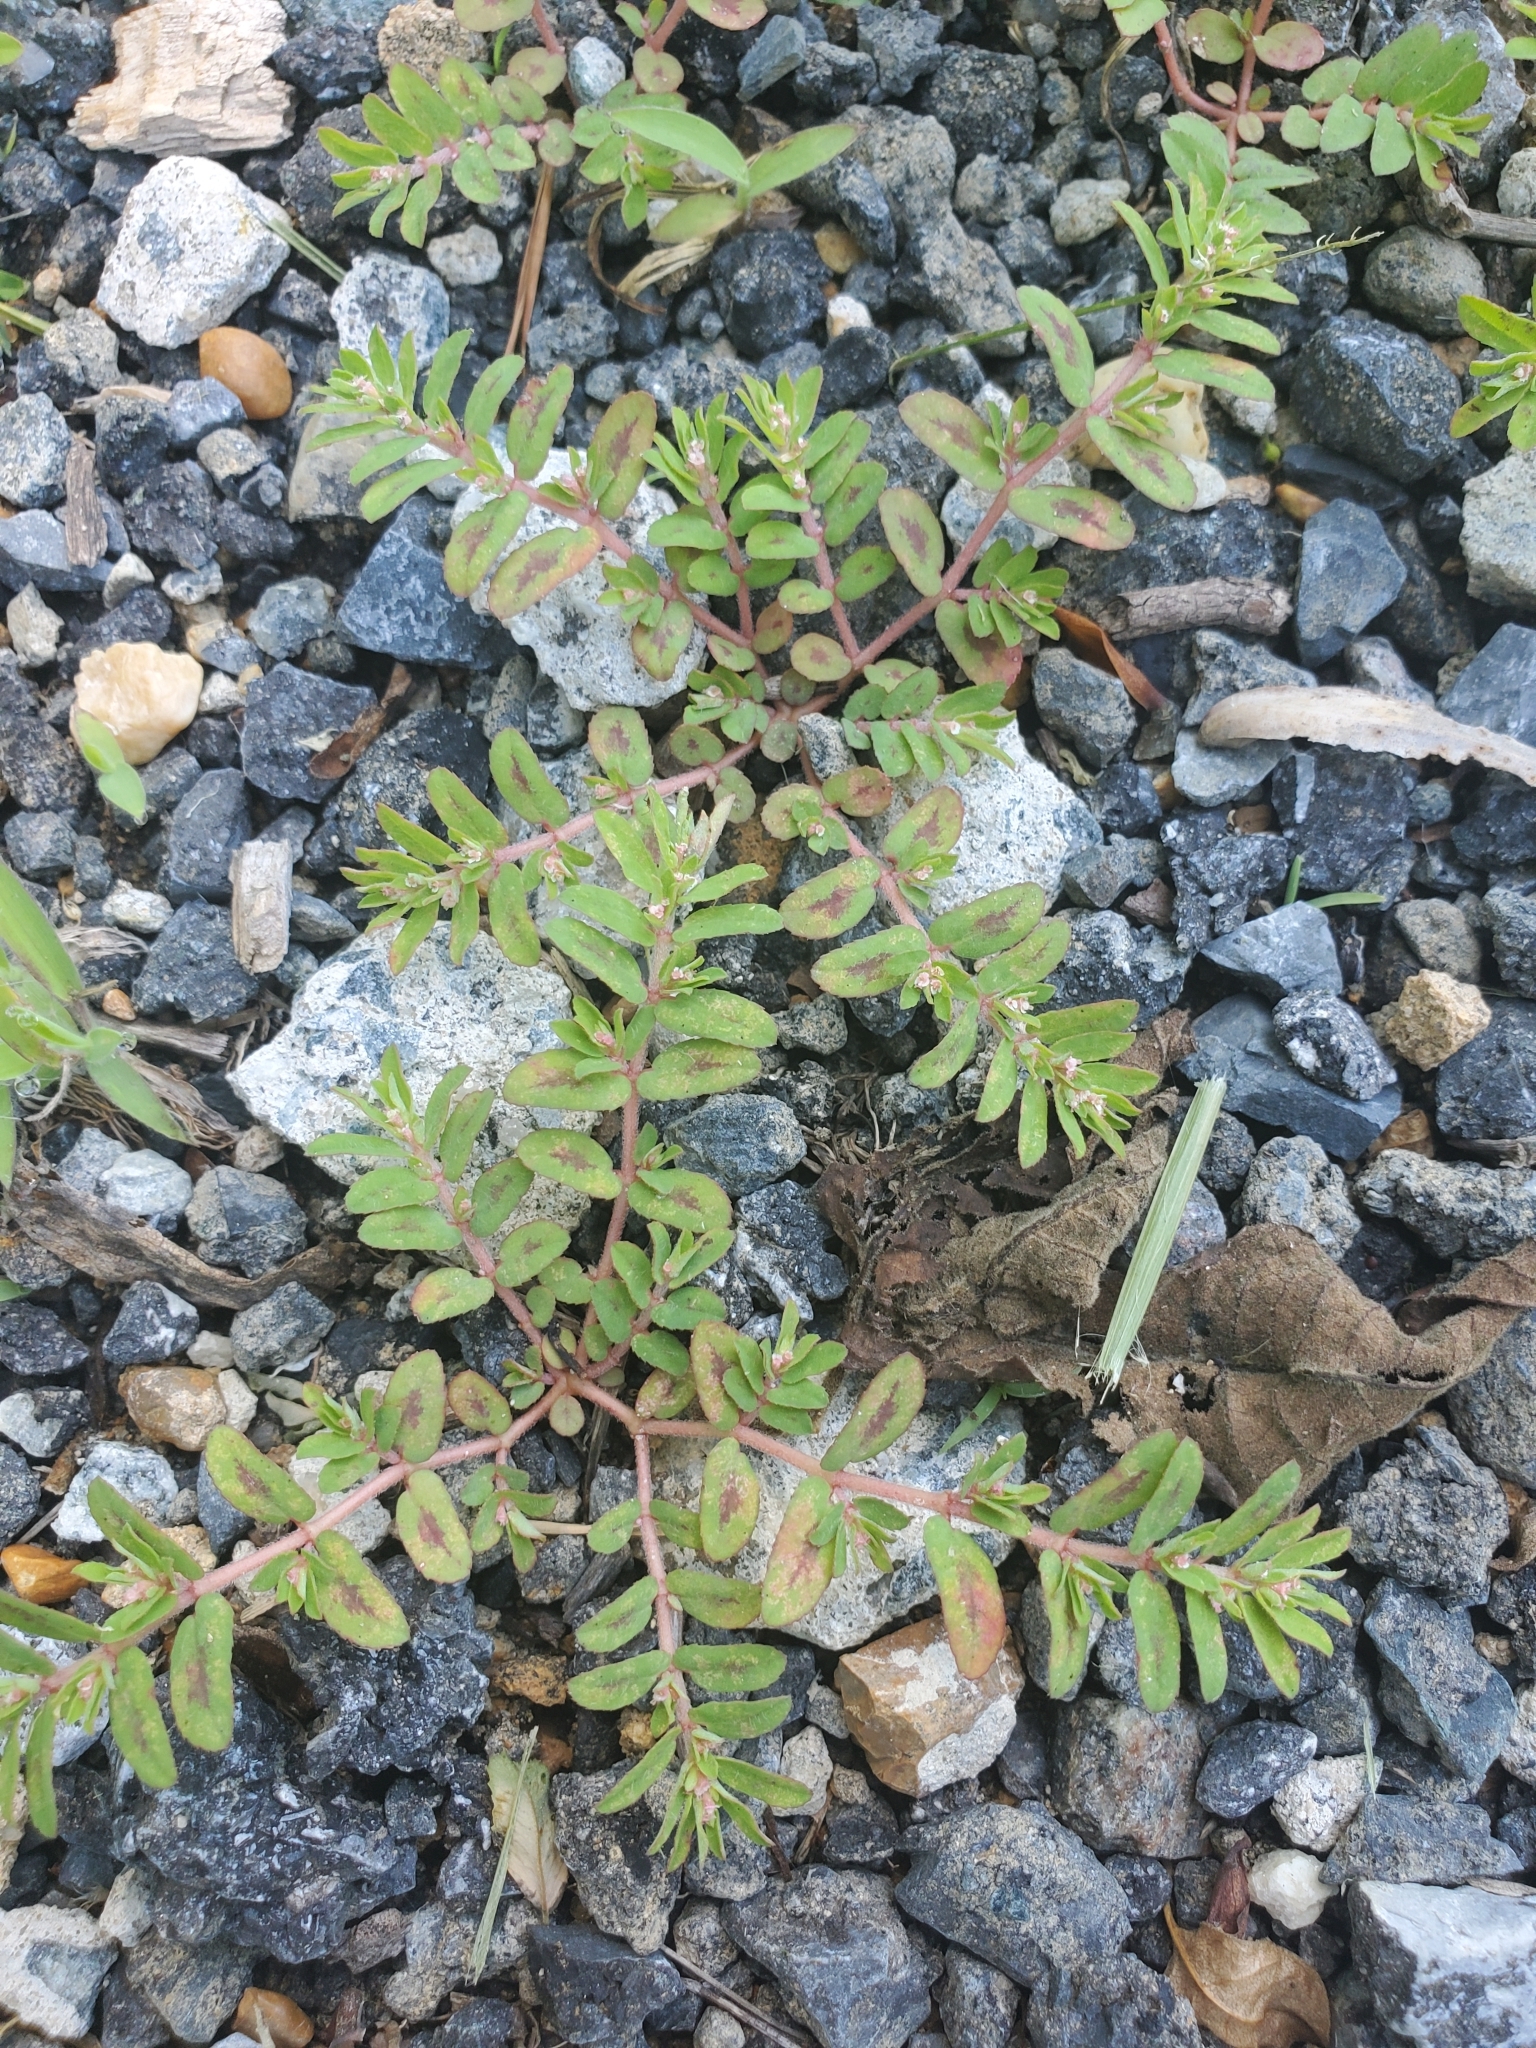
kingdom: Plantae
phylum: Tracheophyta
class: Magnoliopsida
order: Malpighiales
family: Euphorbiaceae
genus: Euphorbia
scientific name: Euphorbia maculata
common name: Spotted spurge
